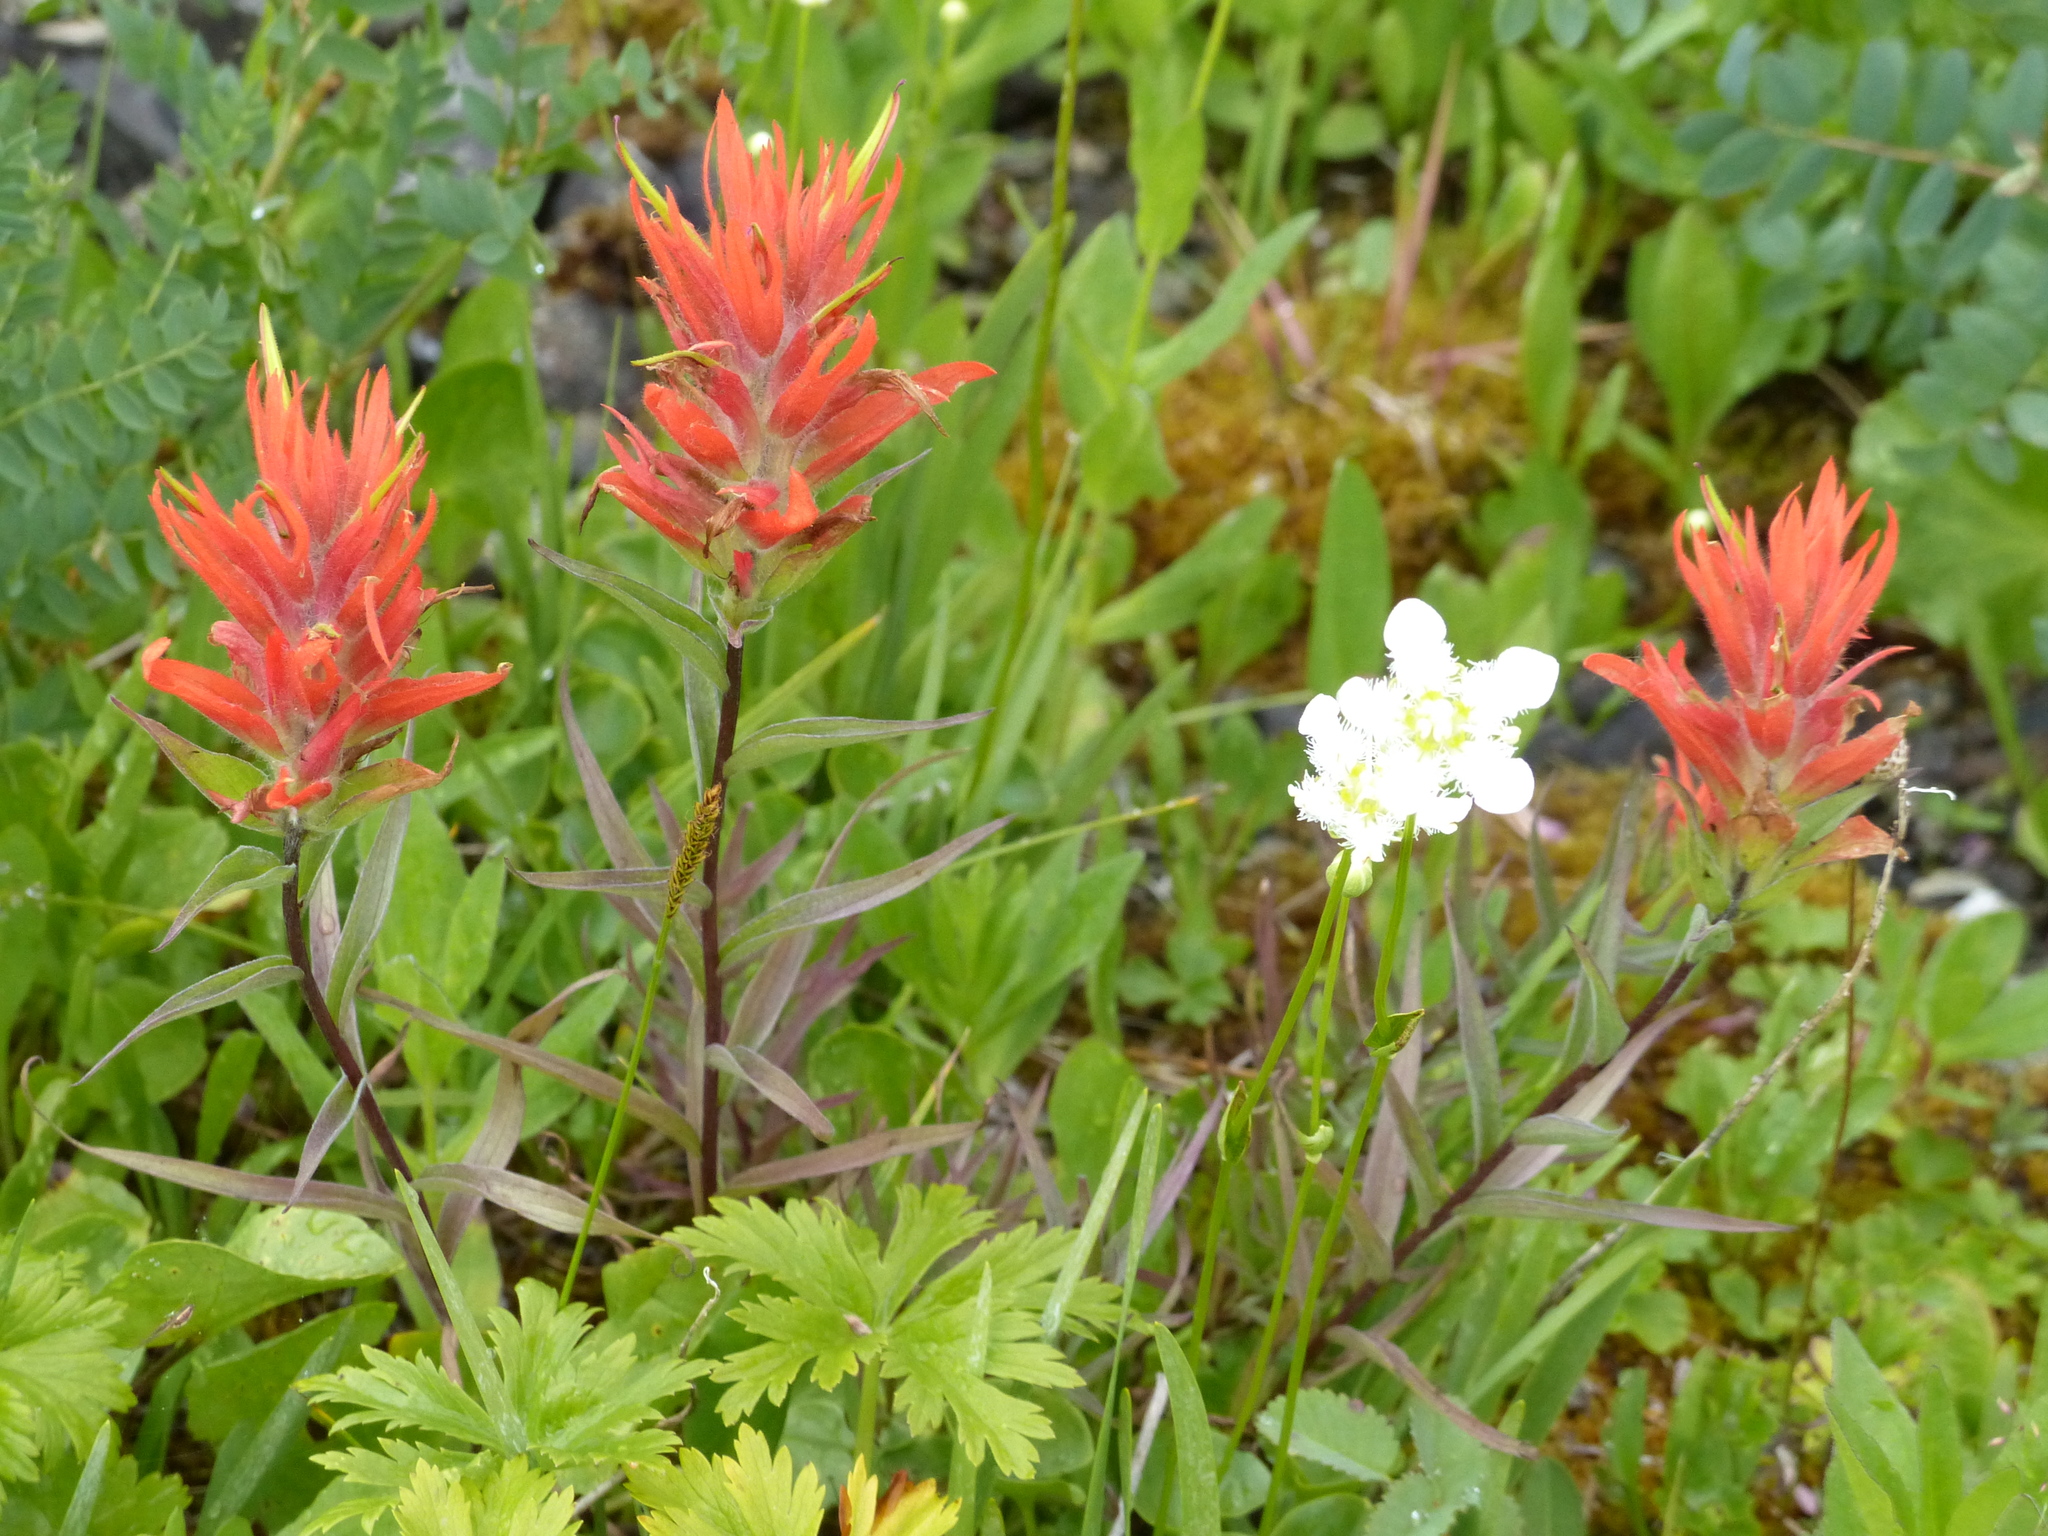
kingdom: Plantae
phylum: Tracheophyta
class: Magnoliopsida
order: Lamiales
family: Orobanchaceae
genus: Castilleja
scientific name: Castilleja miniata
